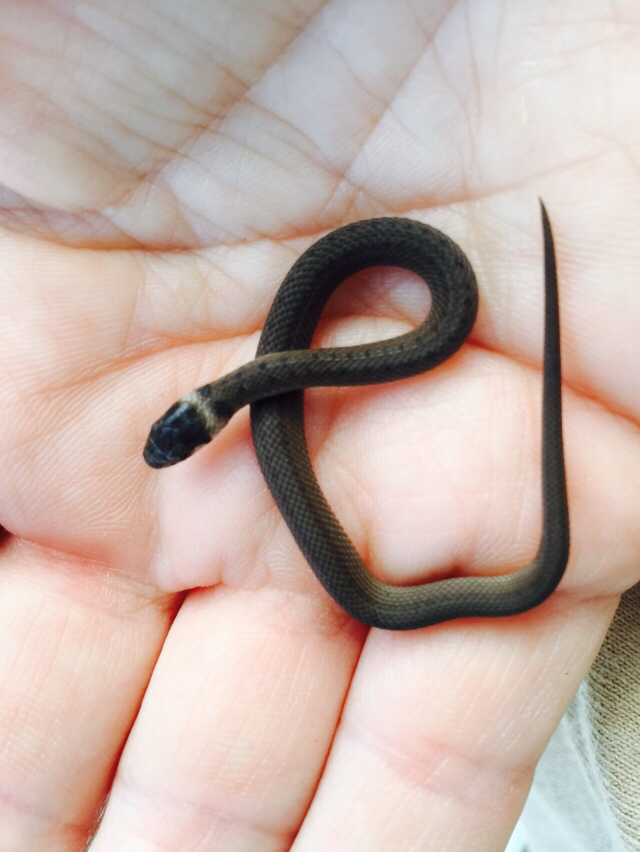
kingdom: Animalia
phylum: Chordata
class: Squamata
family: Colubridae
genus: Storeria
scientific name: Storeria dekayi
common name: (dekay’s) brown snake
